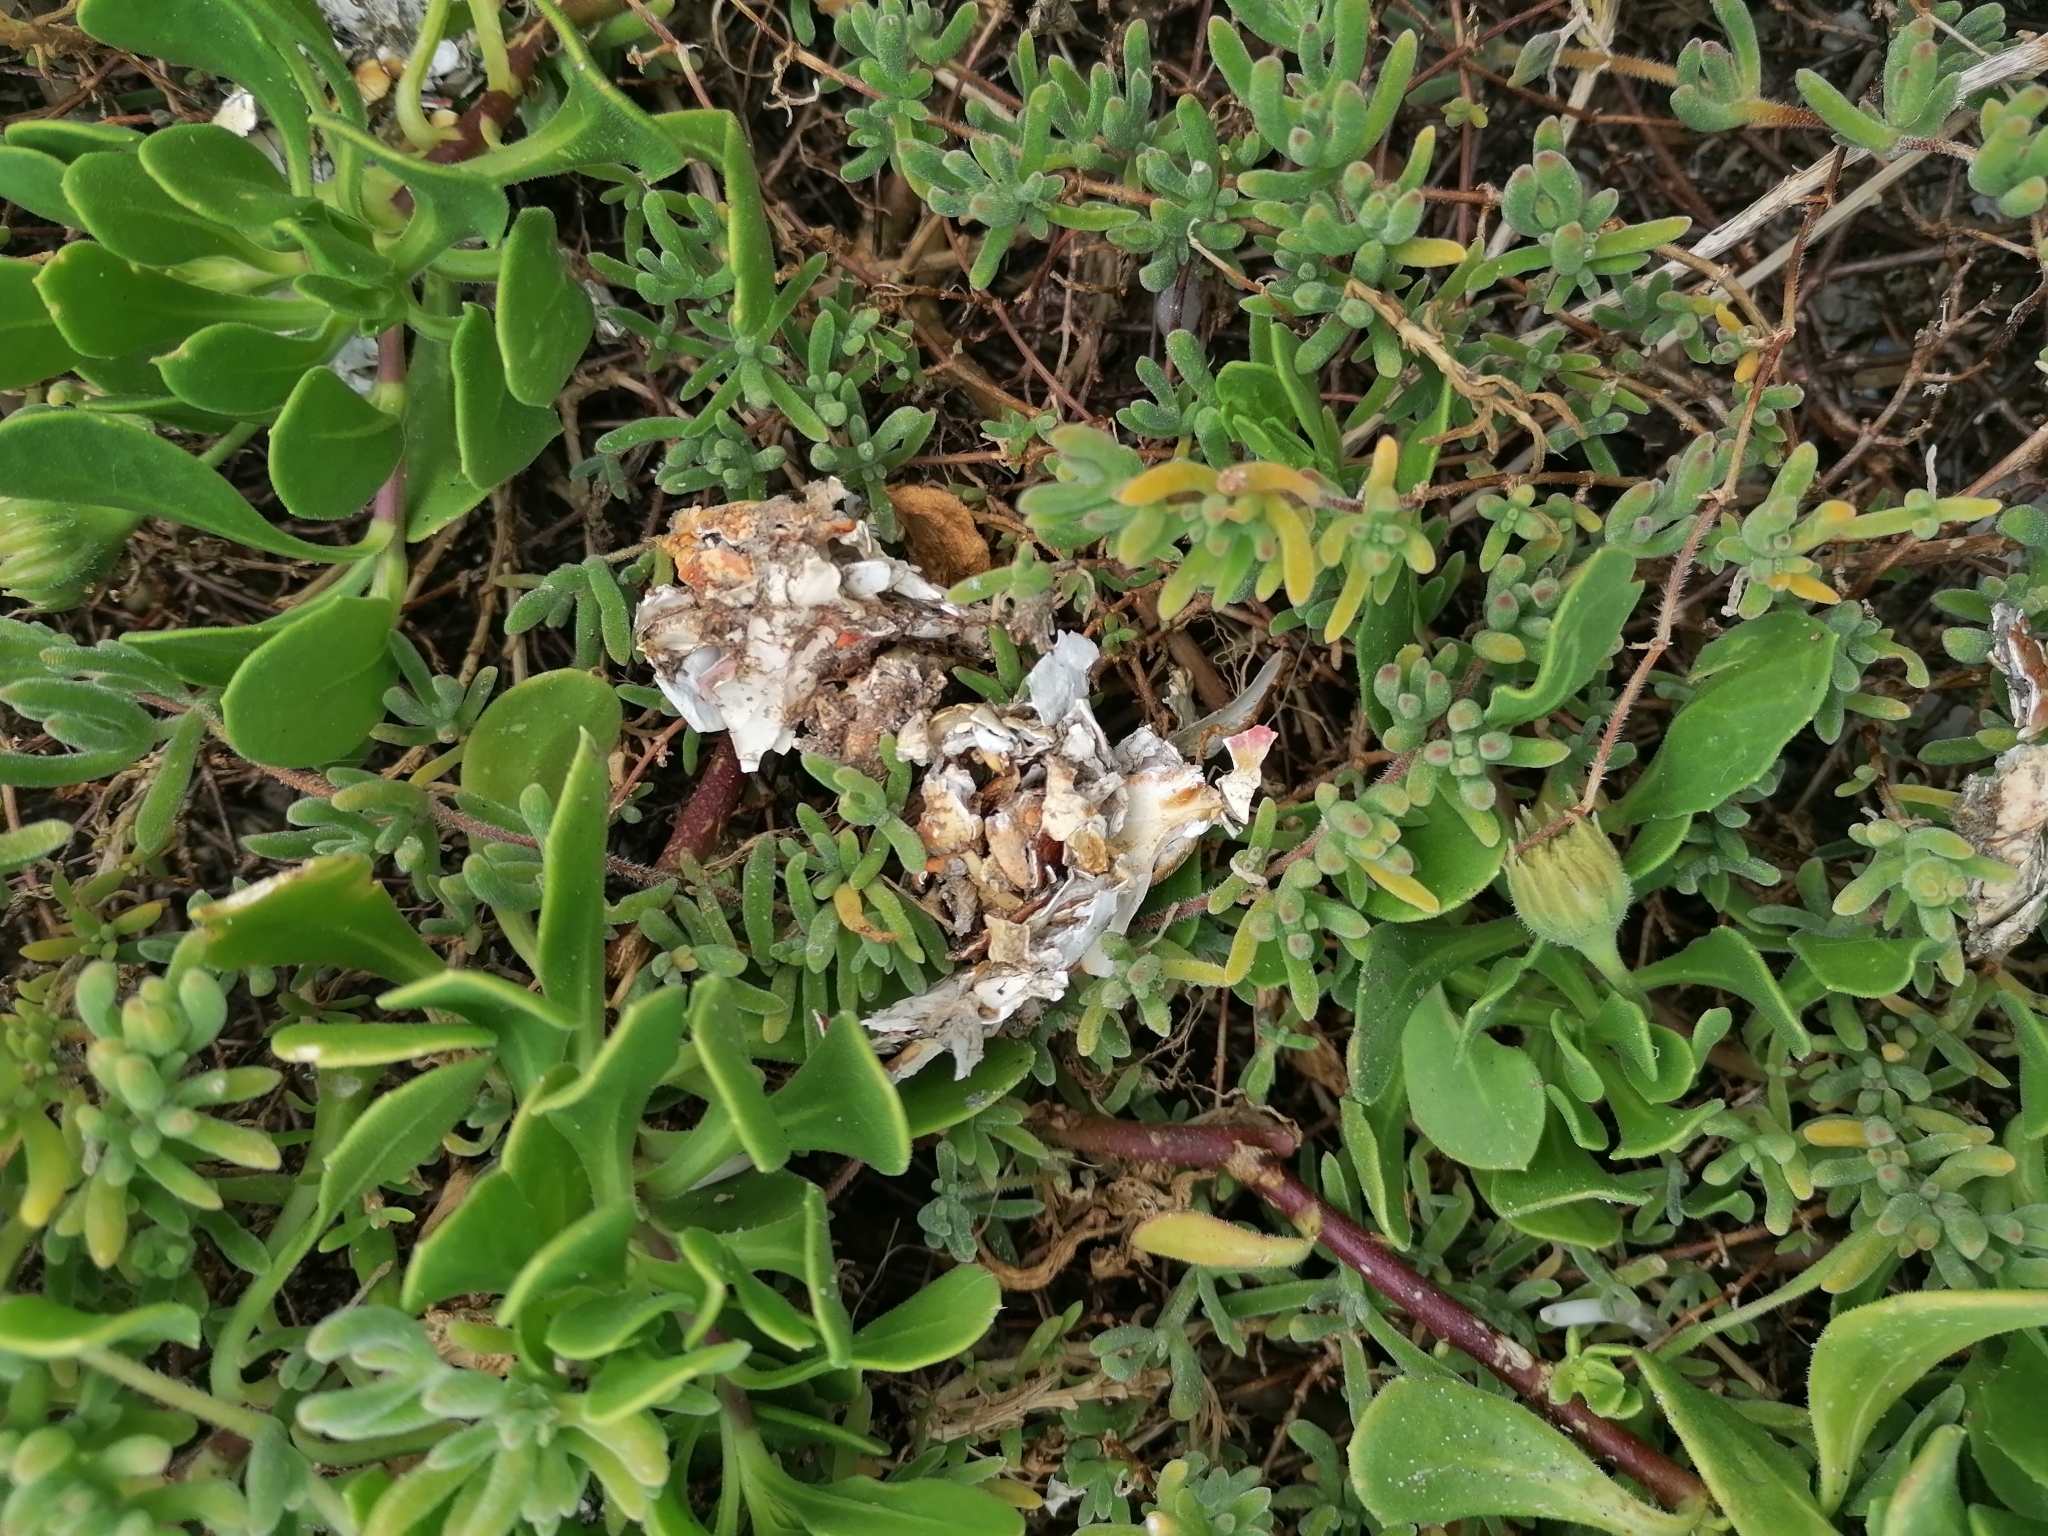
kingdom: Animalia
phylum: Chordata
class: Mammalia
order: Carnivora
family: Mustelidae
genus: Aonyx
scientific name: Aonyx capensis
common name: African clawless otter
